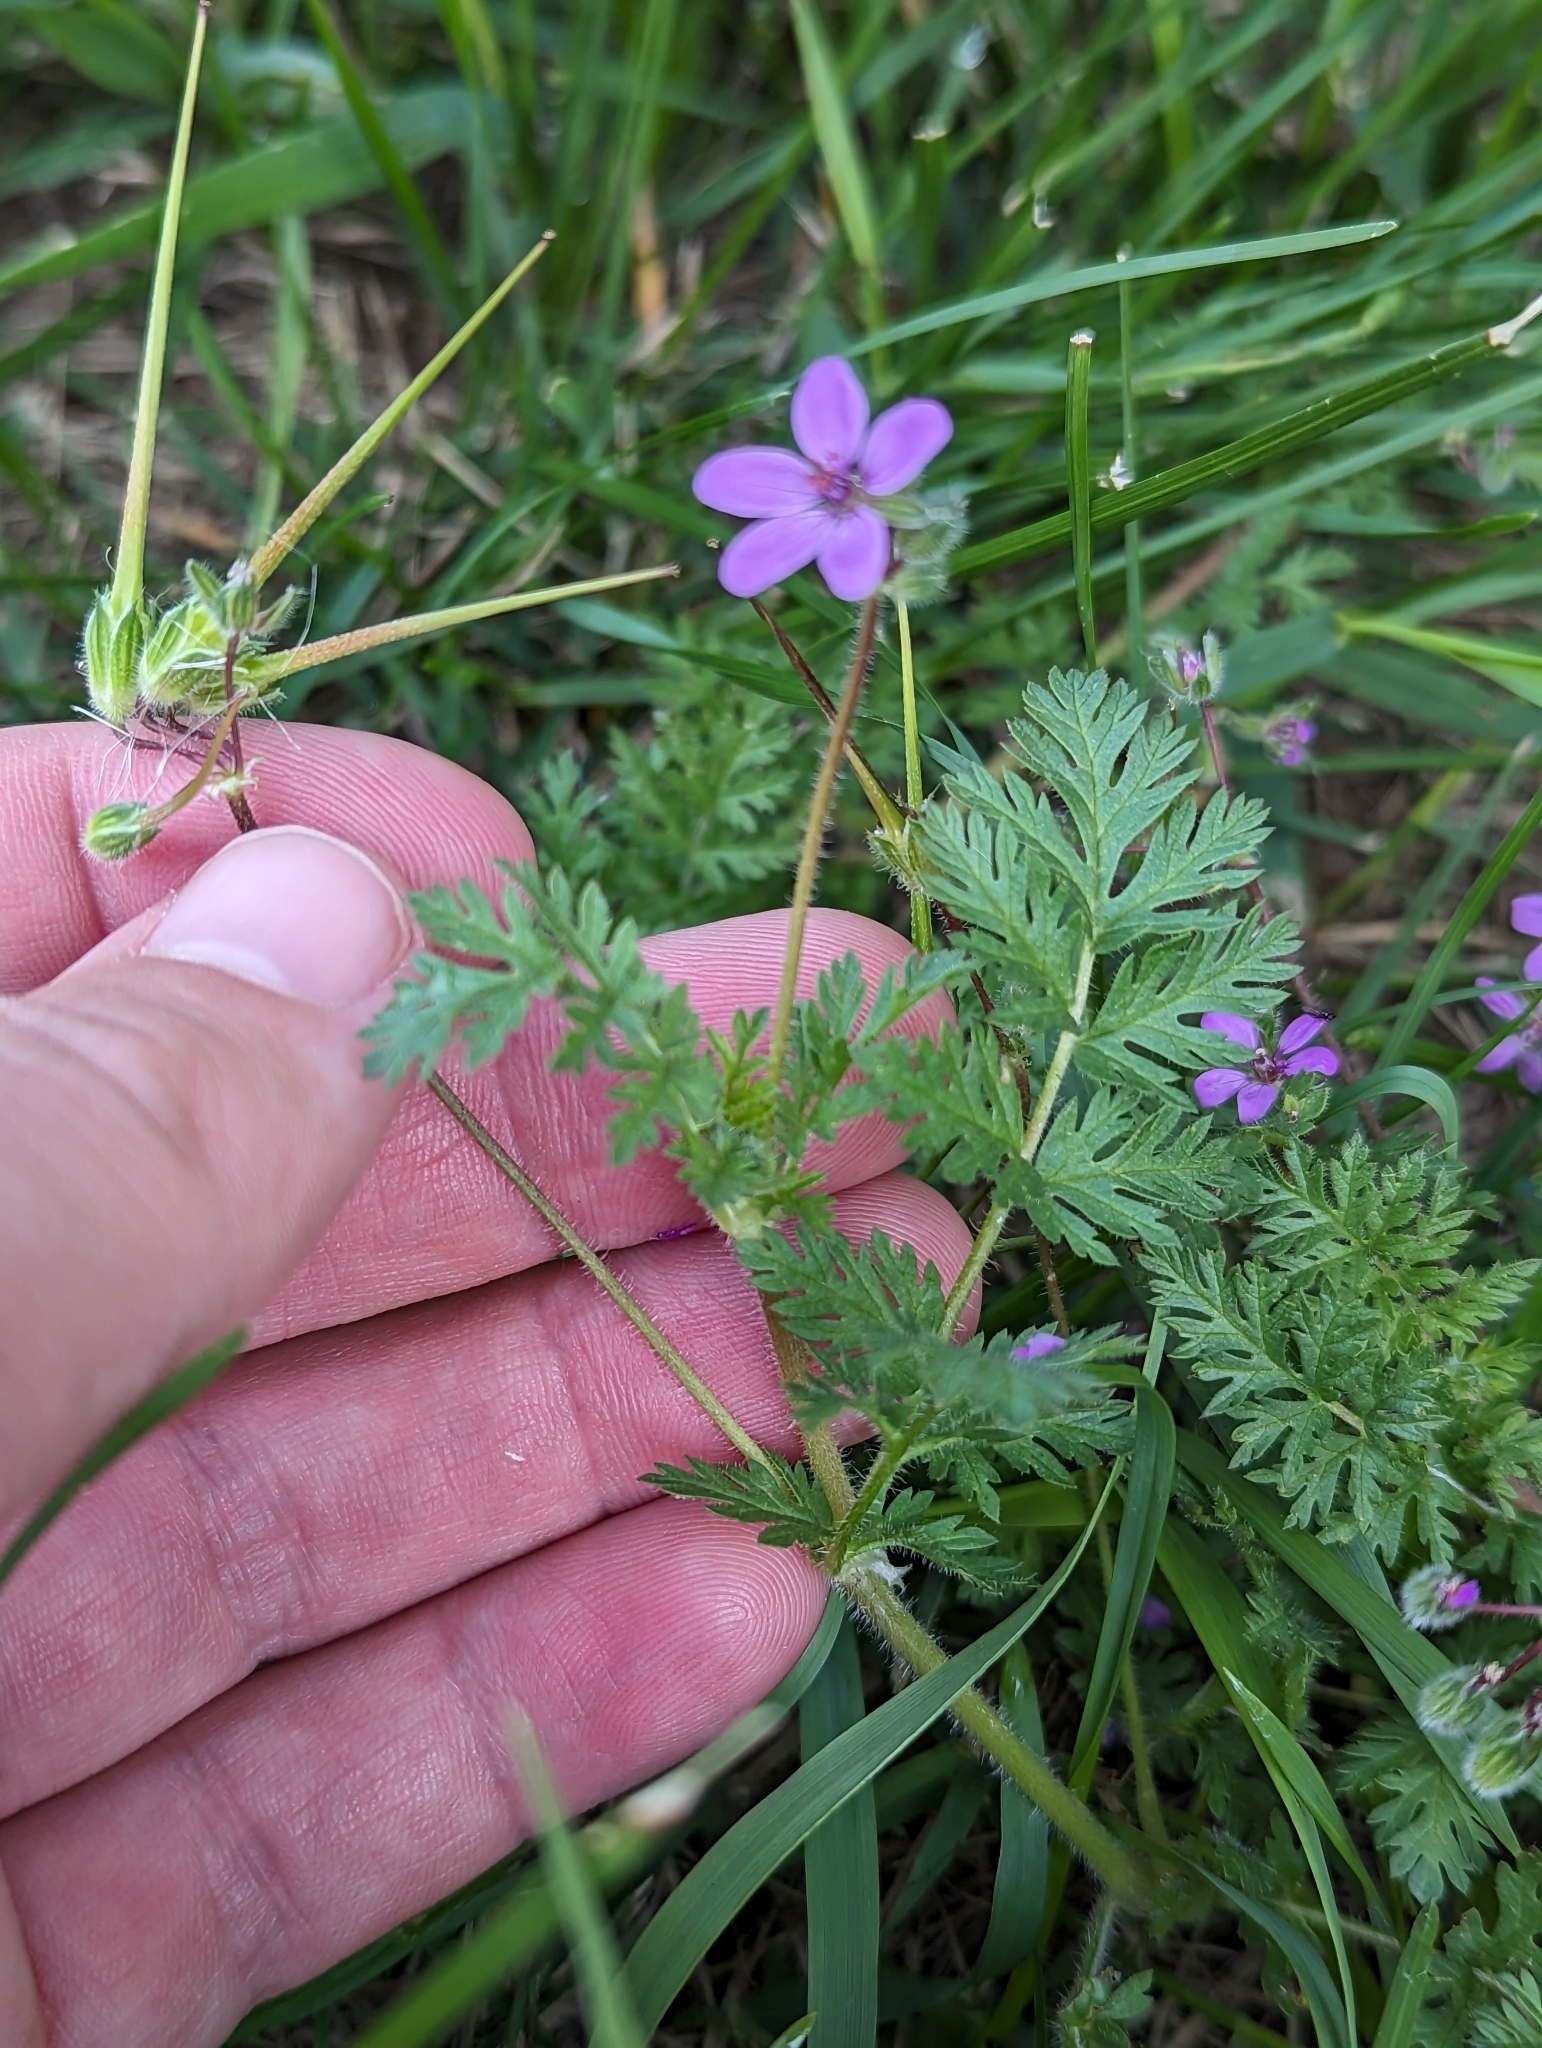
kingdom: Plantae
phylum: Tracheophyta
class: Magnoliopsida
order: Geraniales
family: Geraniaceae
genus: Erodium
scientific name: Erodium cicutarium
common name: Common stork's-bill
